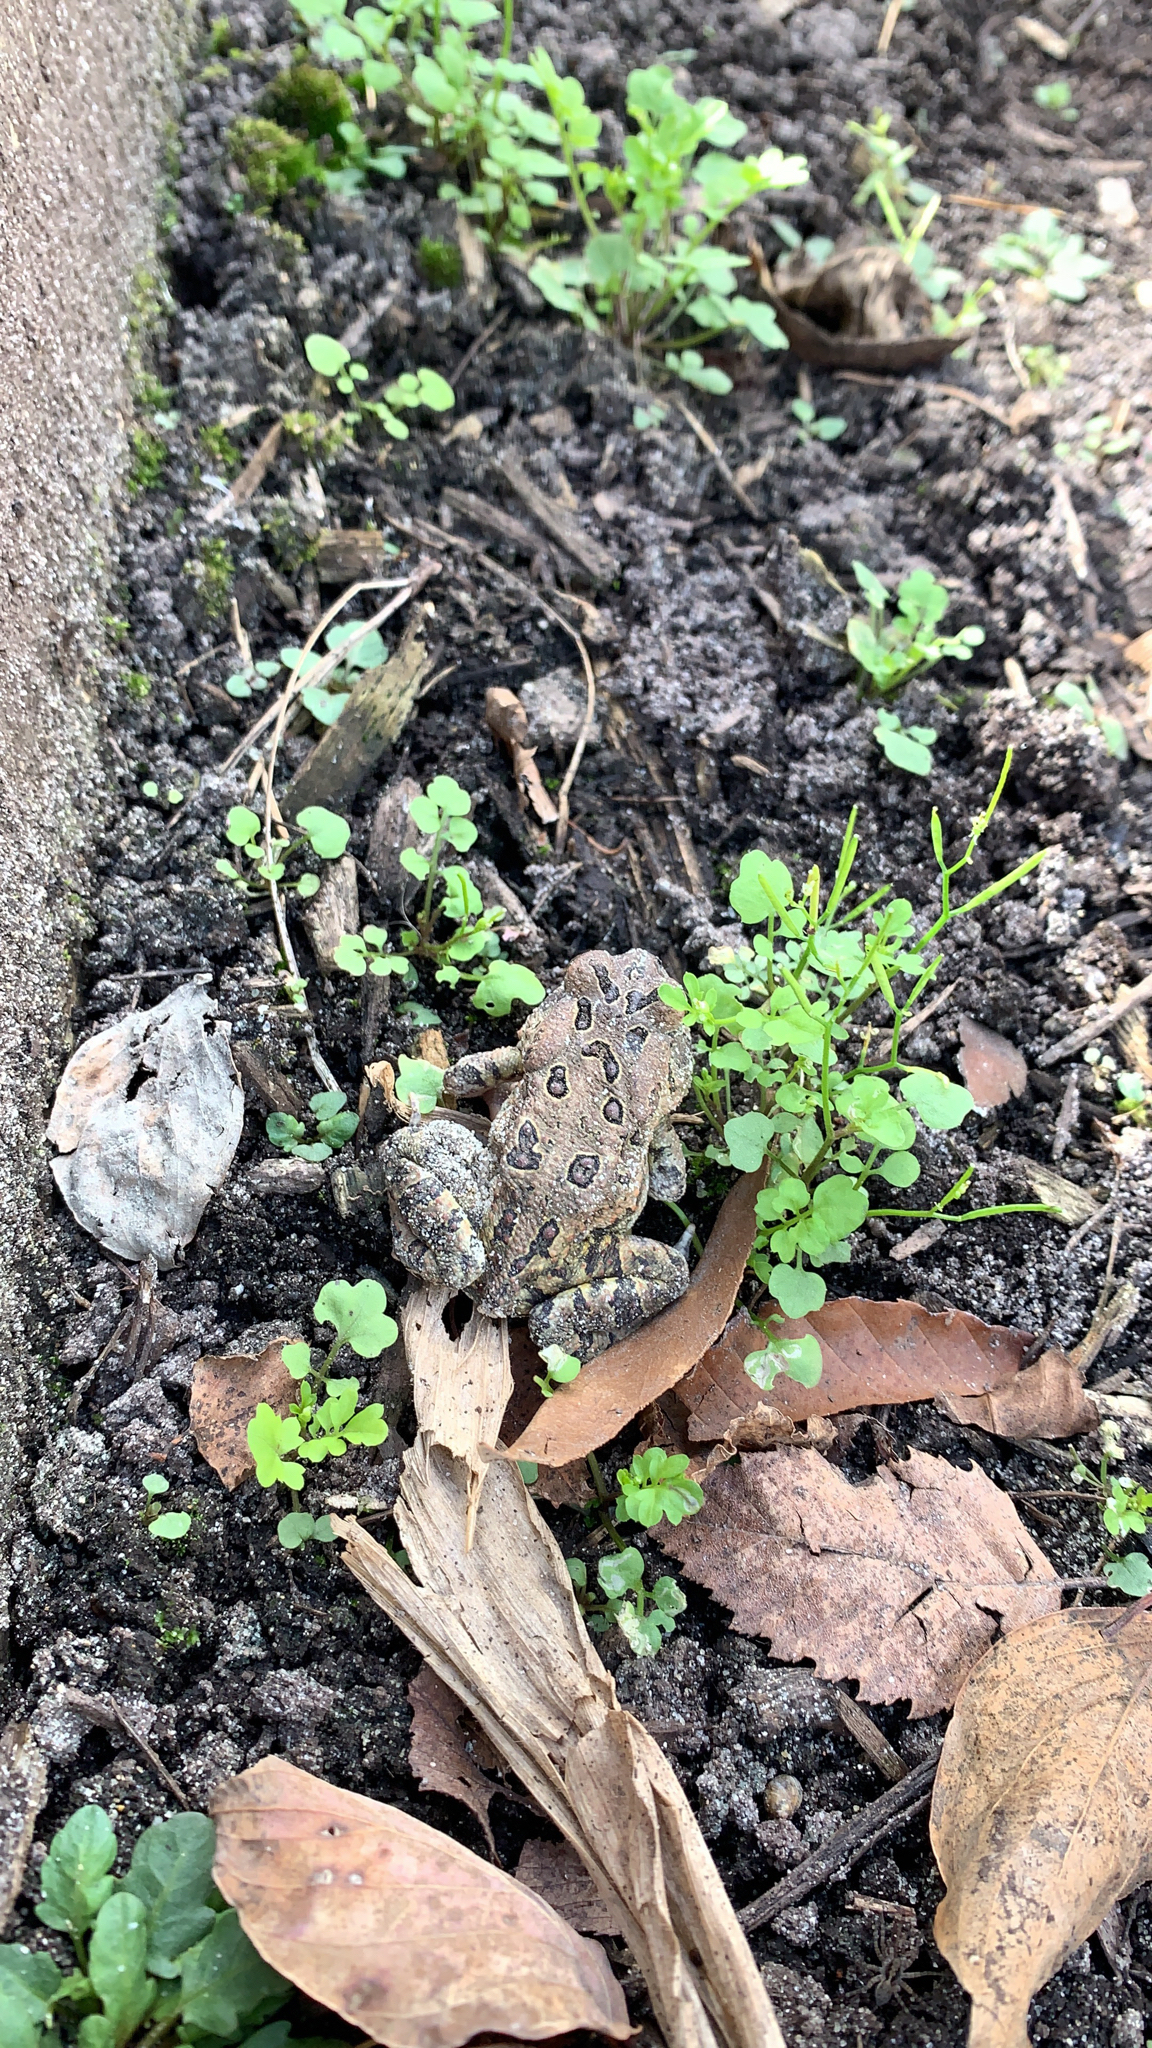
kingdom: Animalia
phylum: Chordata
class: Amphibia
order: Anura
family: Bufonidae
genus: Anaxyrus
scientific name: Anaxyrus fowleri
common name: Fowler's toad
